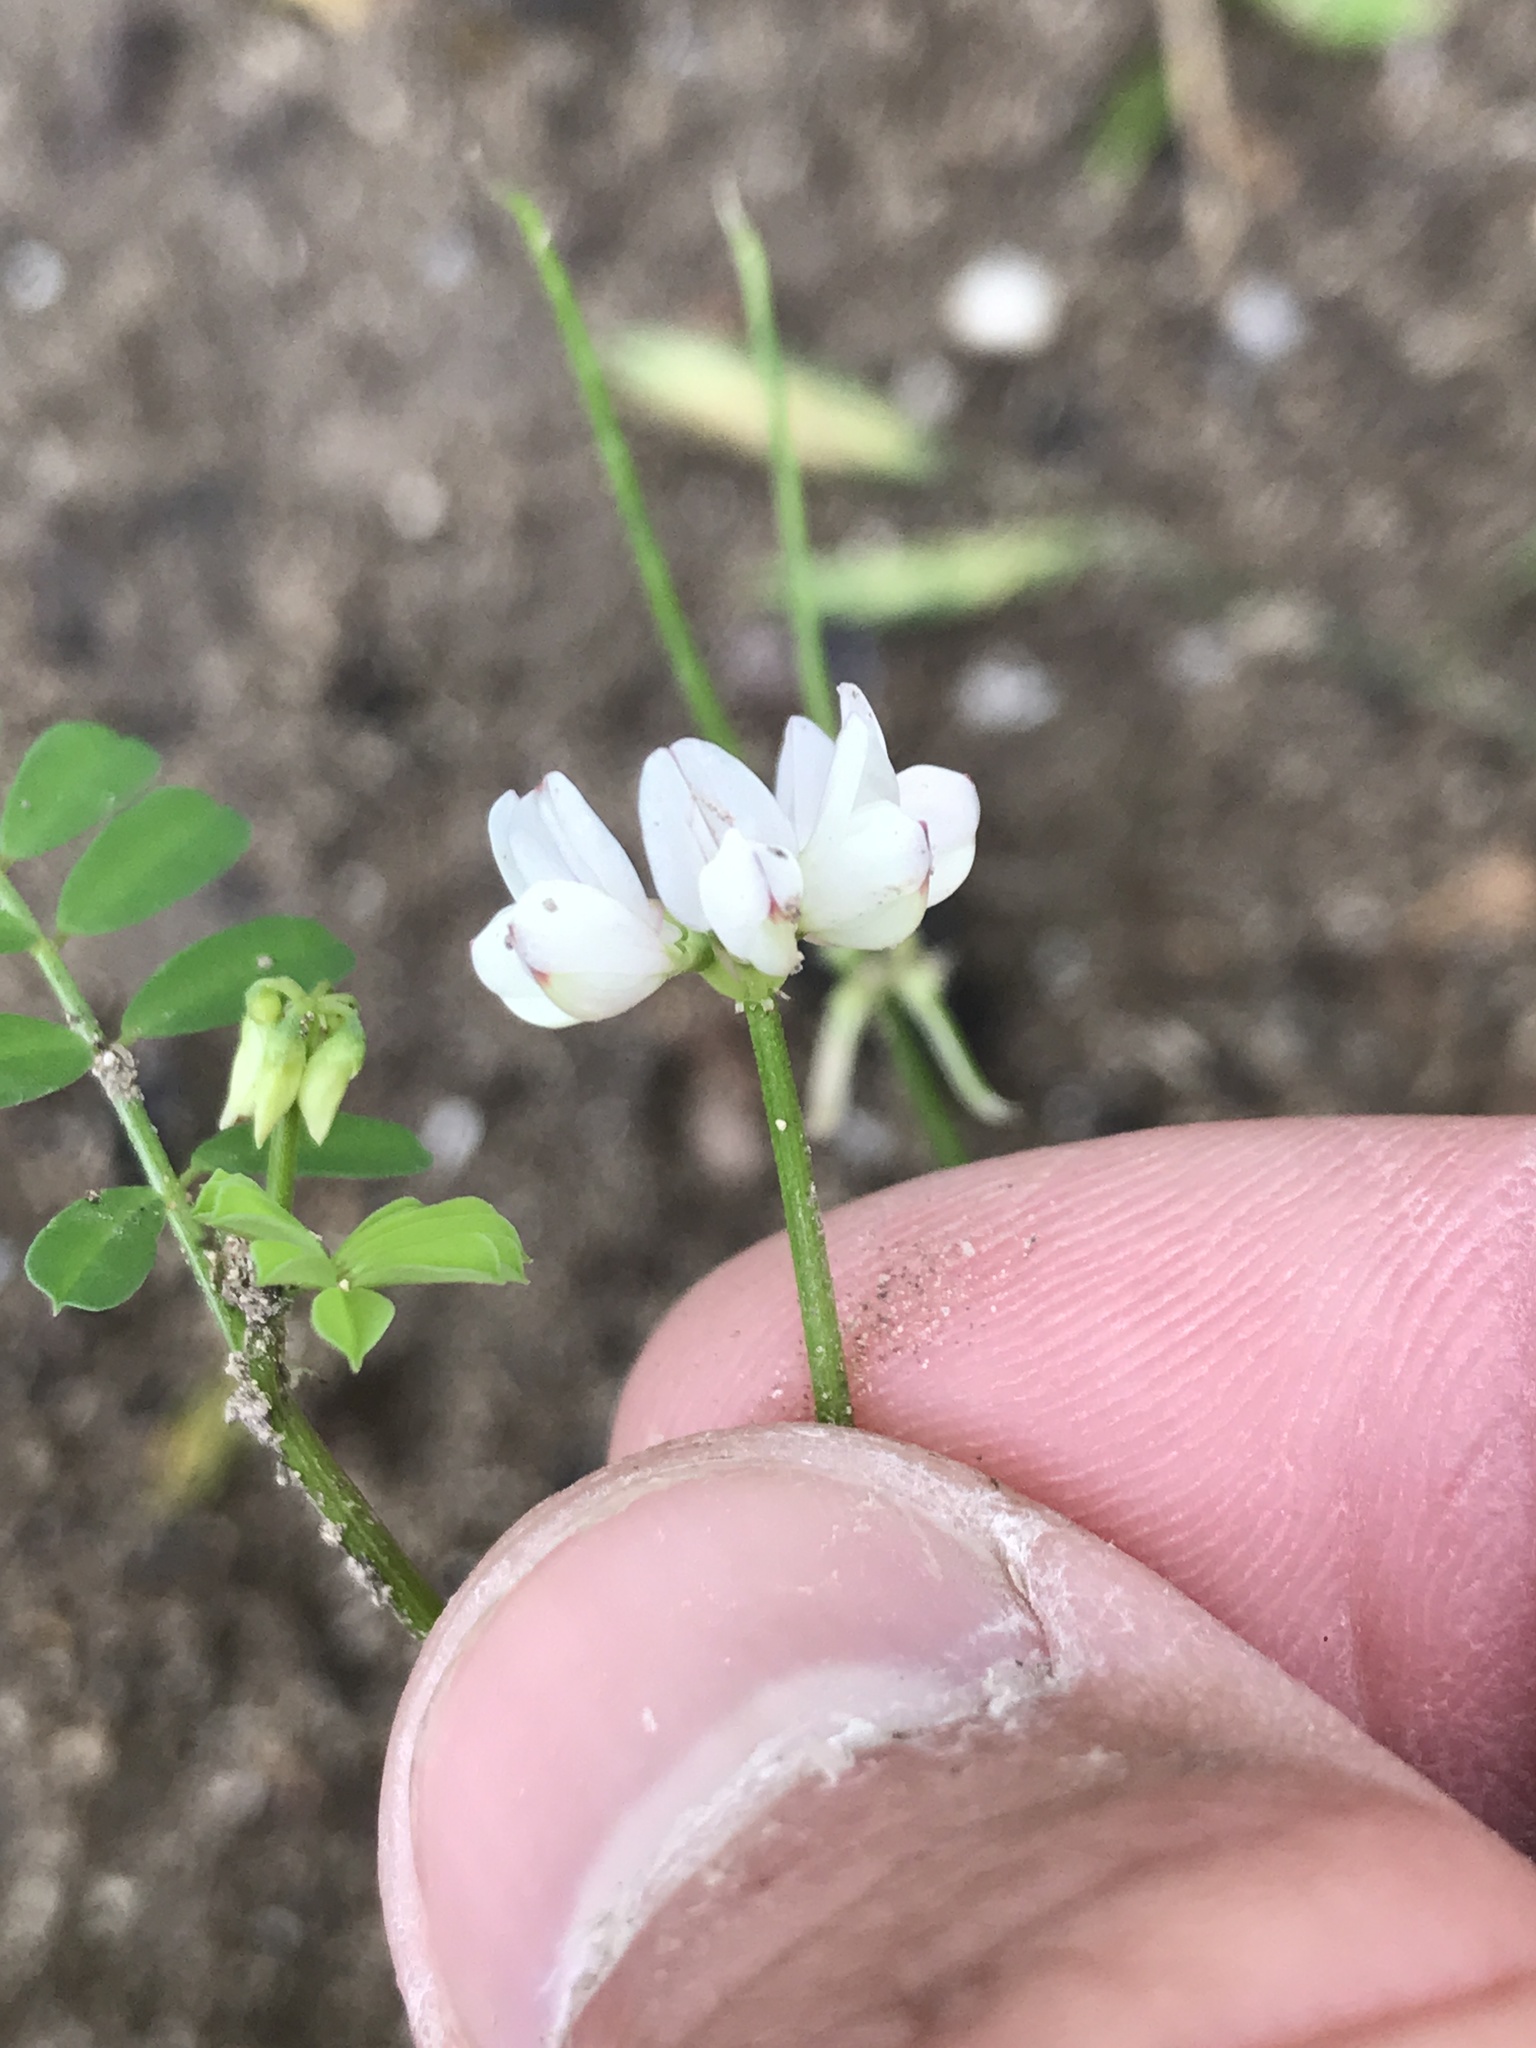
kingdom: Plantae
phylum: Tracheophyta
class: Magnoliopsida
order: Fabales
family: Fabaceae
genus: Coronilla
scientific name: Coronilla cretica
